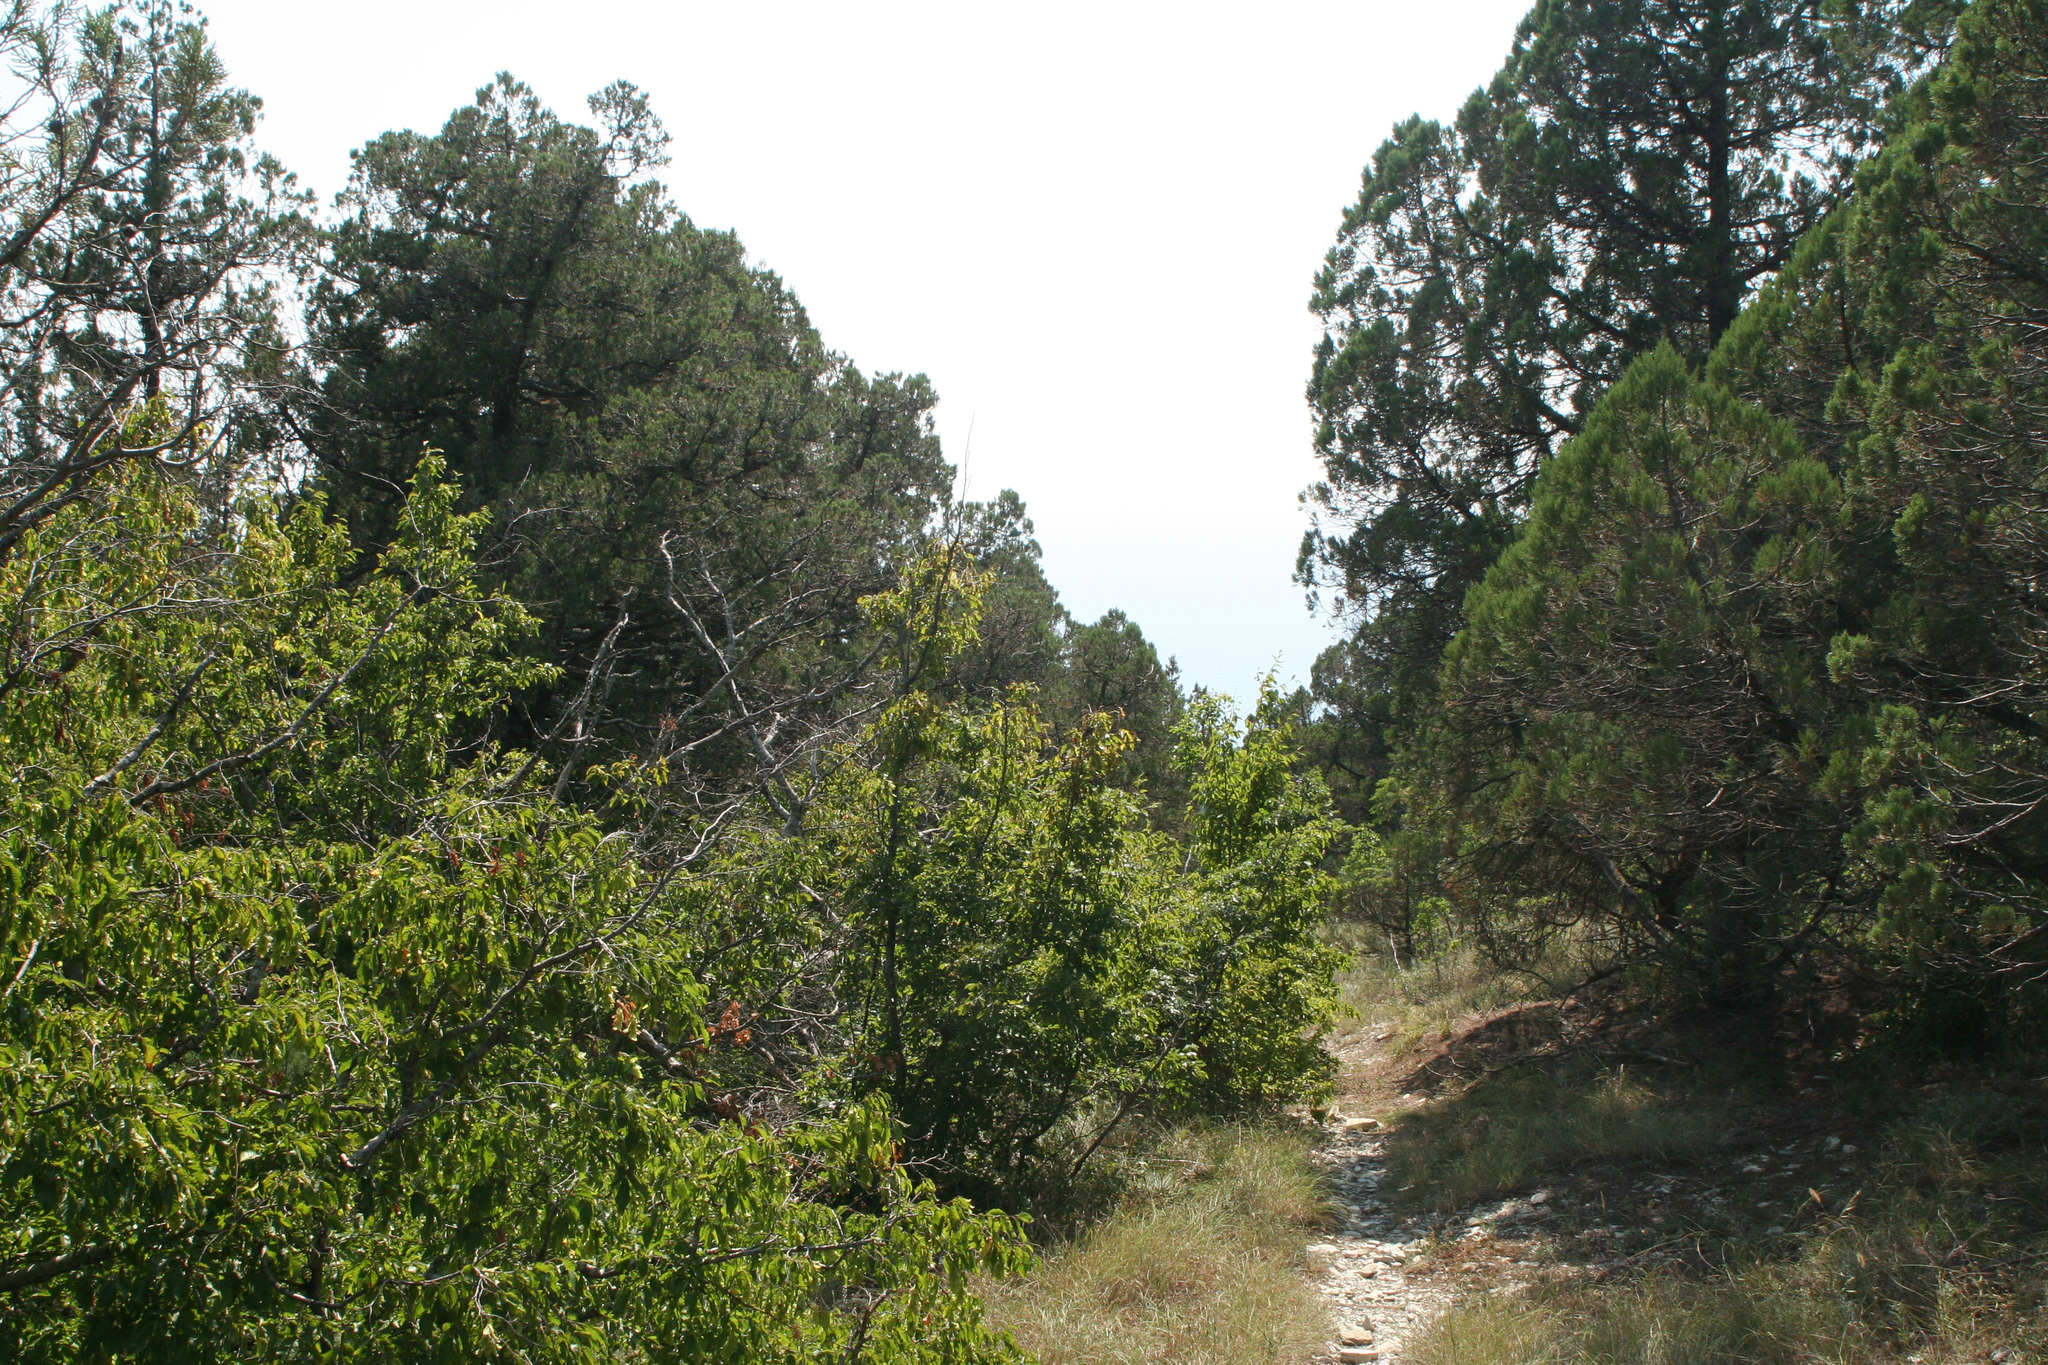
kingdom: Plantae
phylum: Tracheophyta
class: Magnoliopsida
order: Fagales
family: Betulaceae
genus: Carpinus
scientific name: Carpinus orientalis
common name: Eastern hornbeam
